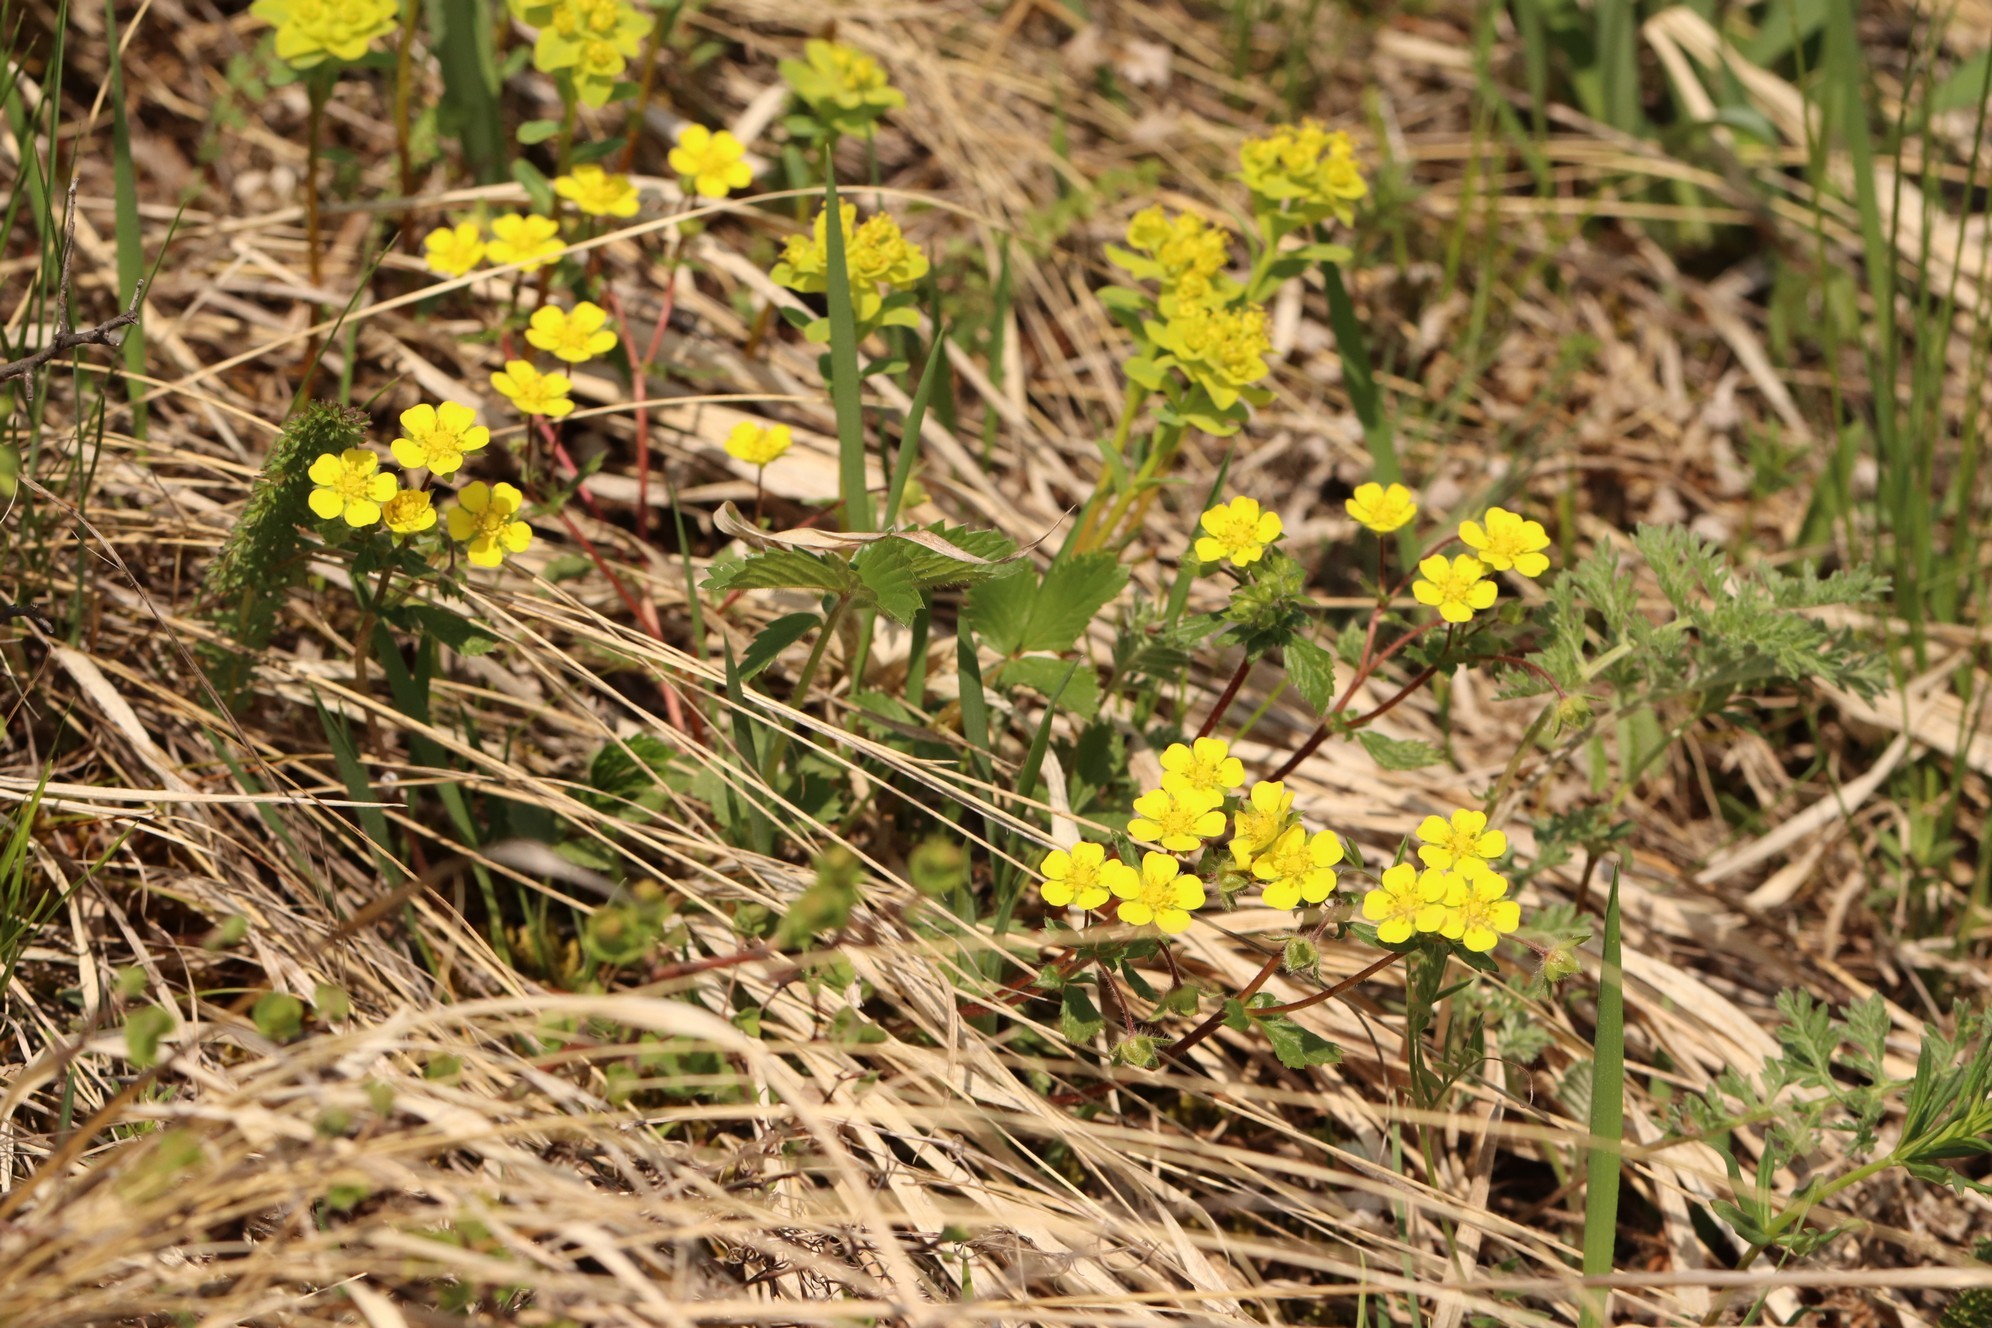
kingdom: Plantae
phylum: Tracheophyta
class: Magnoliopsida
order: Rosales
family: Rosaceae
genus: Potentilla
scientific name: Potentilla fragarioides
